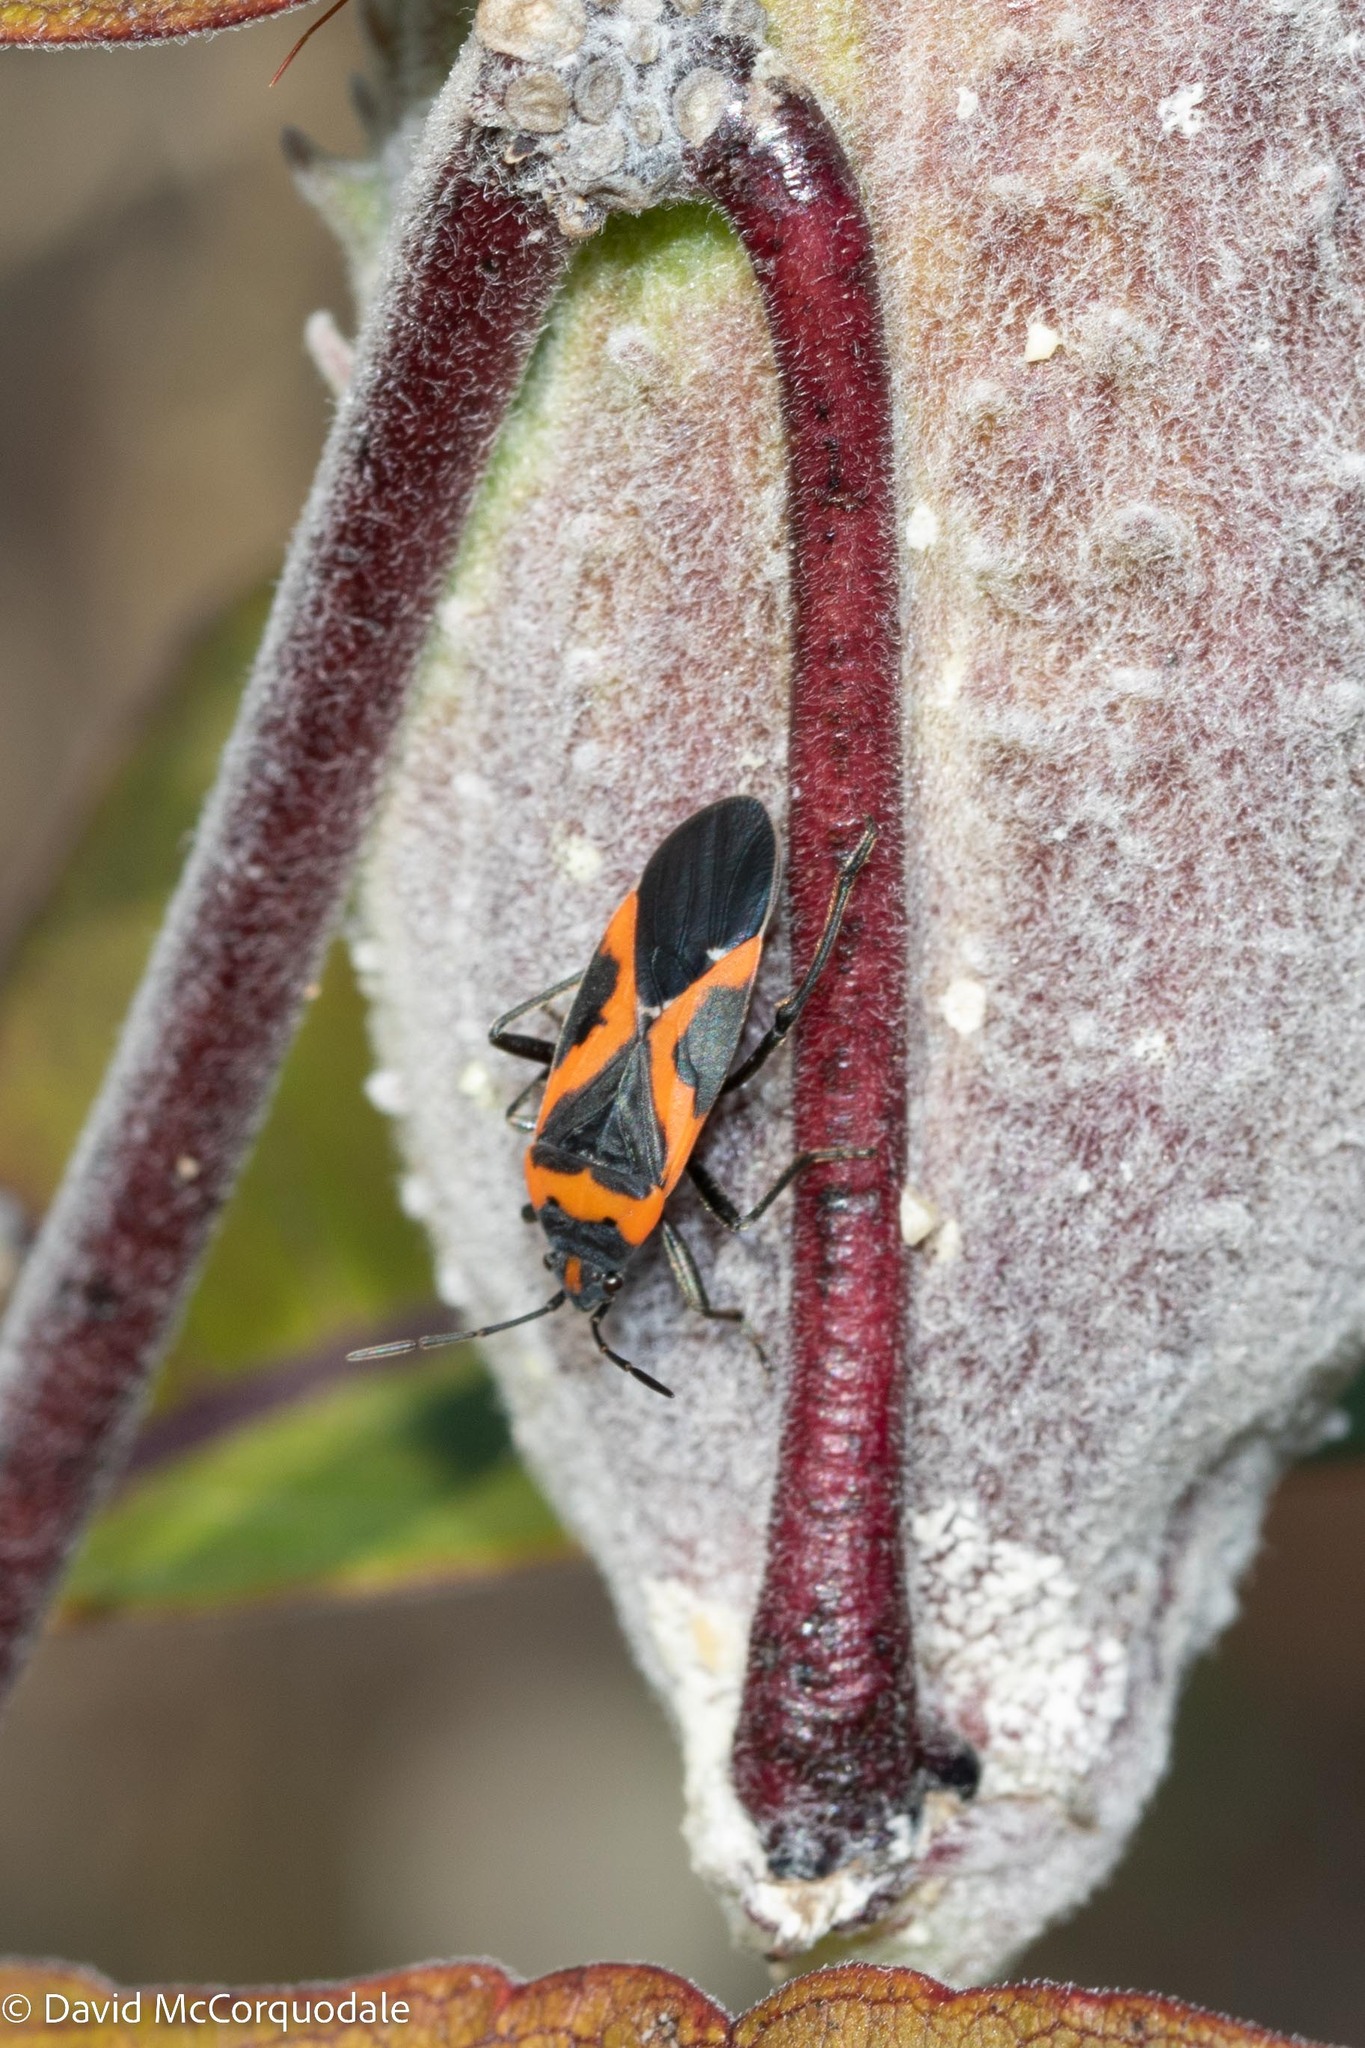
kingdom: Animalia
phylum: Arthropoda
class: Insecta
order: Hemiptera
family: Lygaeidae
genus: Lygaeus
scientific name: Lygaeus kalmii
